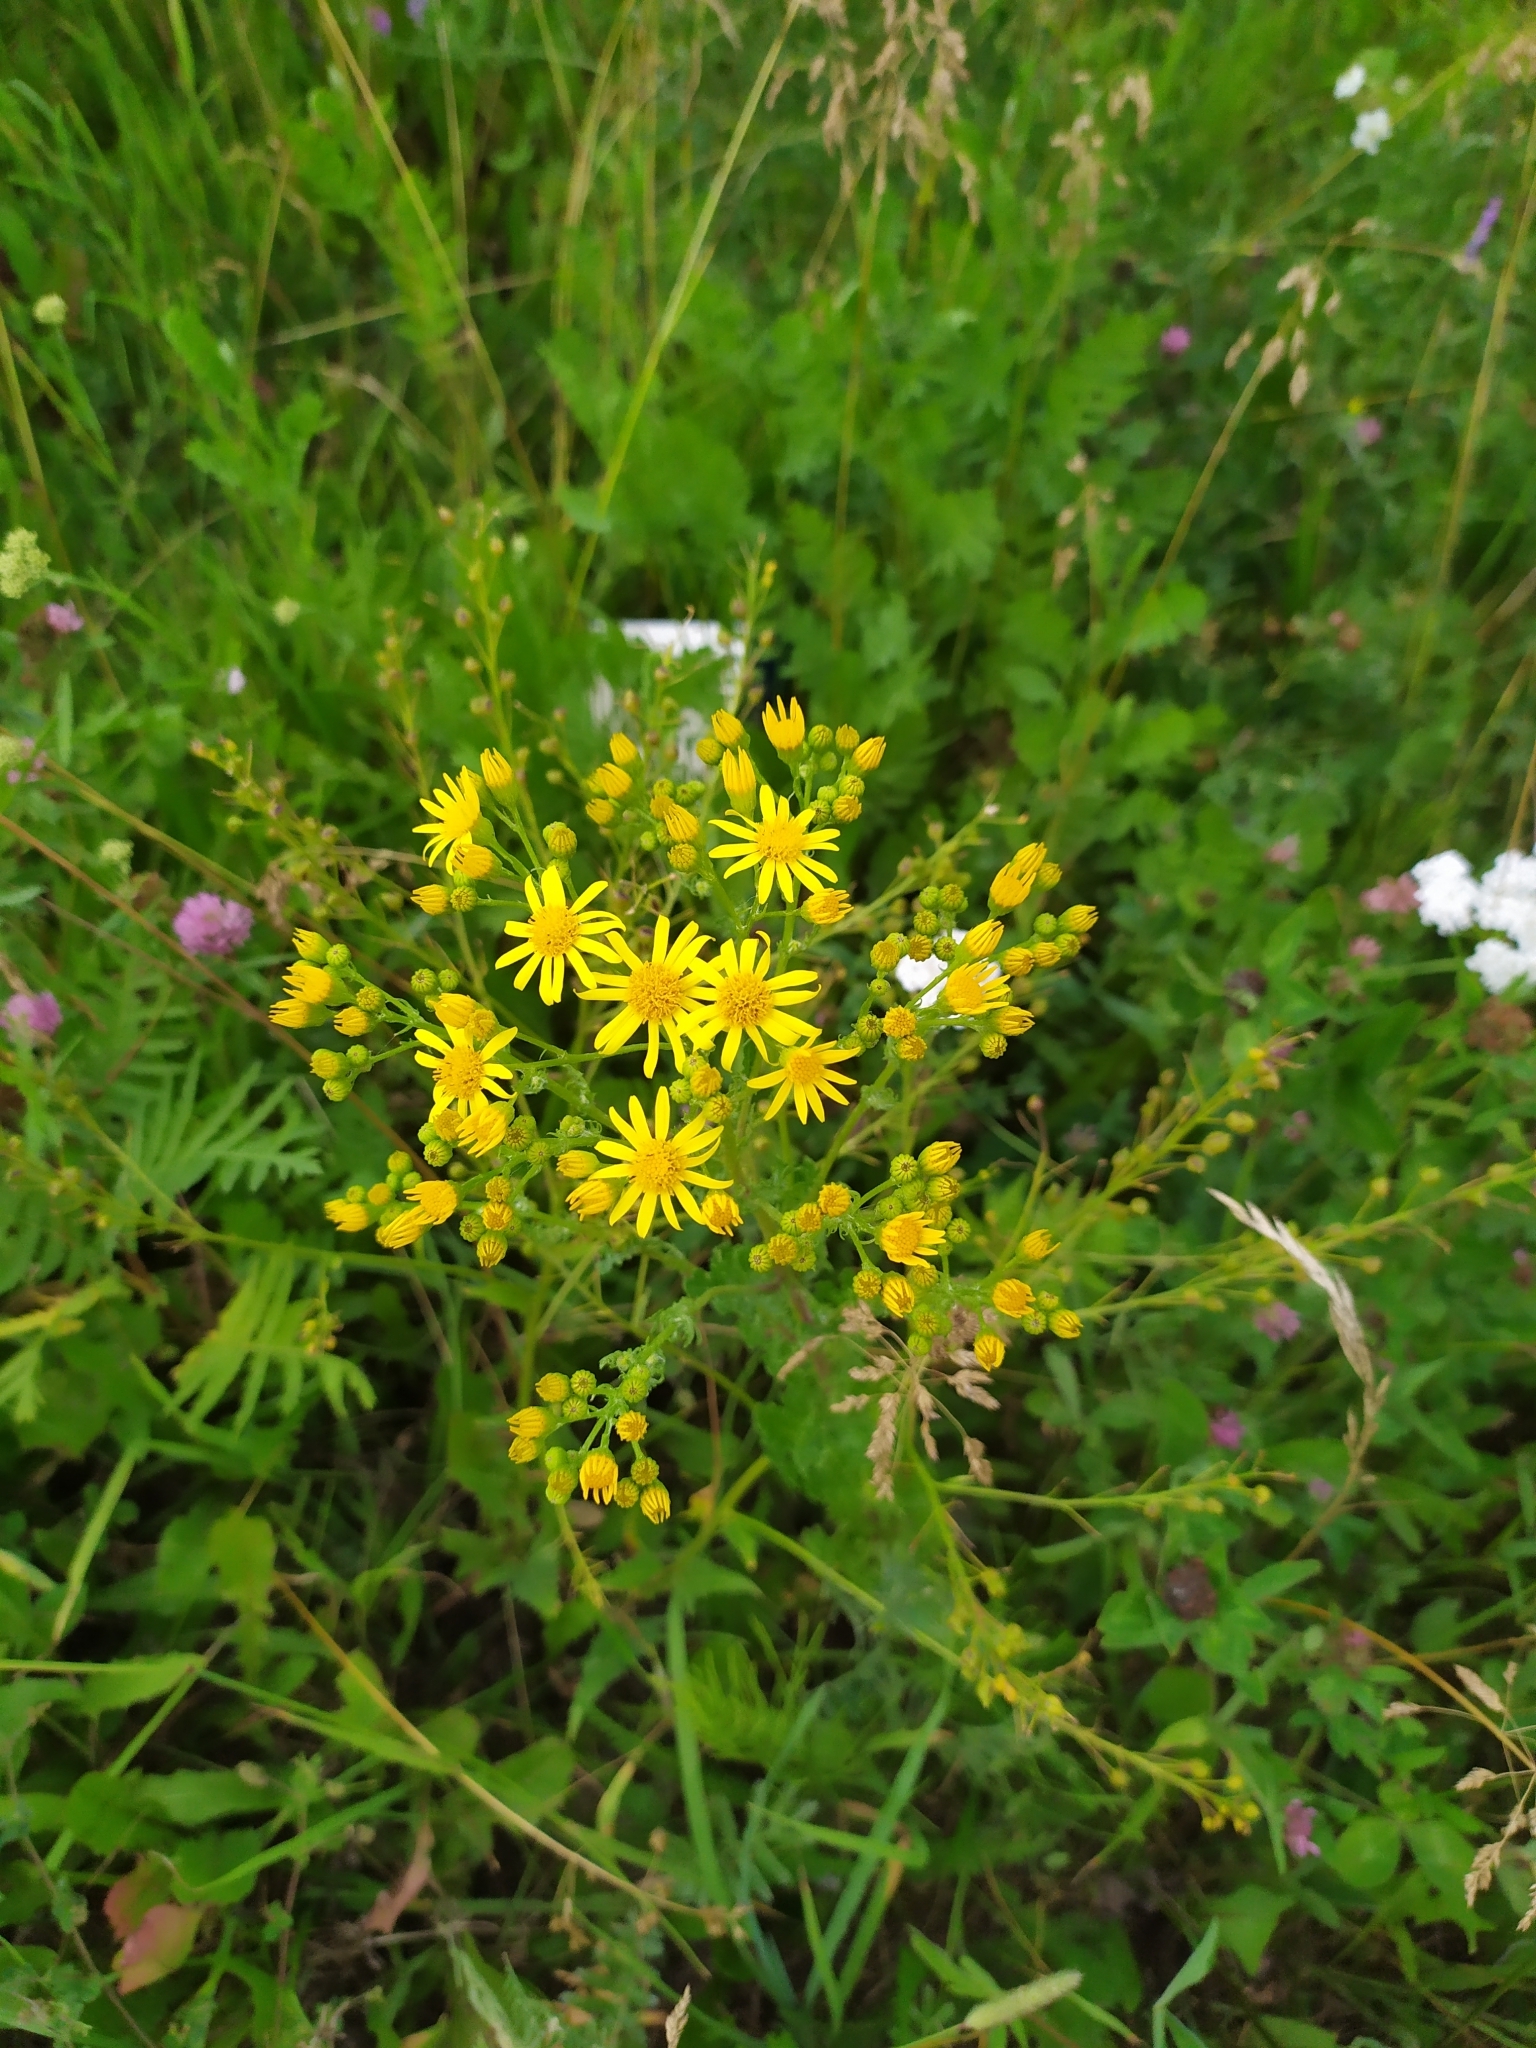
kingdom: Plantae
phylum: Tracheophyta
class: Magnoliopsida
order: Asterales
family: Asteraceae
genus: Jacobaea
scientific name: Jacobaea vulgaris
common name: Stinking willie
